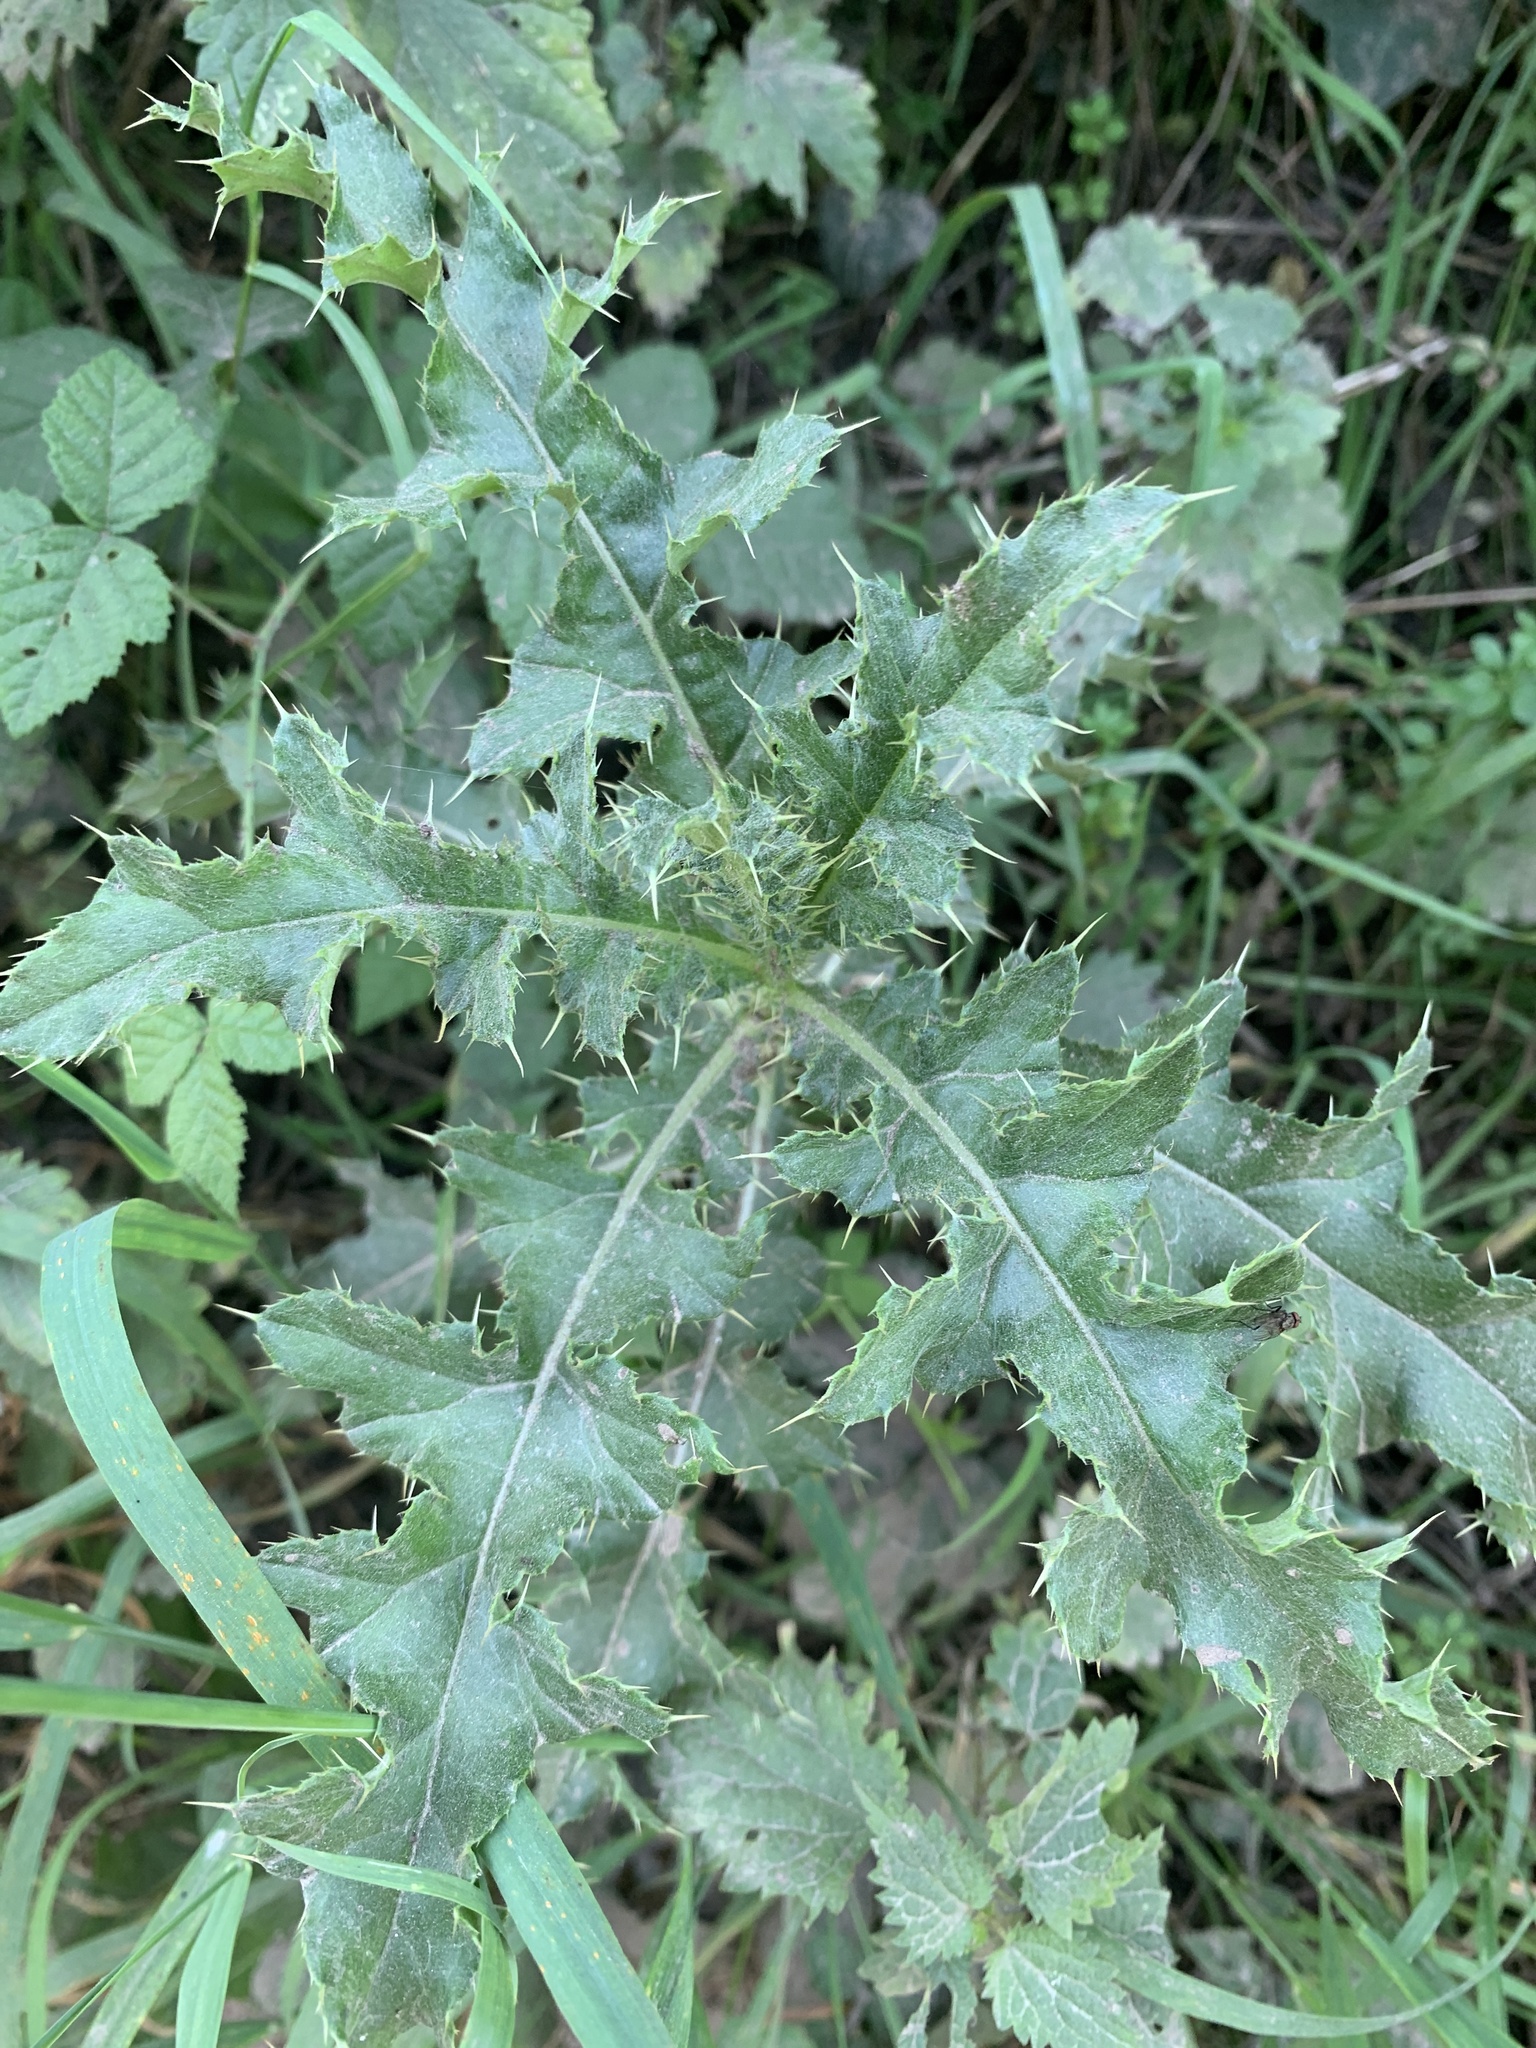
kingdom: Plantae
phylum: Tracheophyta
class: Magnoliopsida
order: Asterales
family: Asteraceae
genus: Cirsium
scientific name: Cirsium arvense
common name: Creeping thistle
